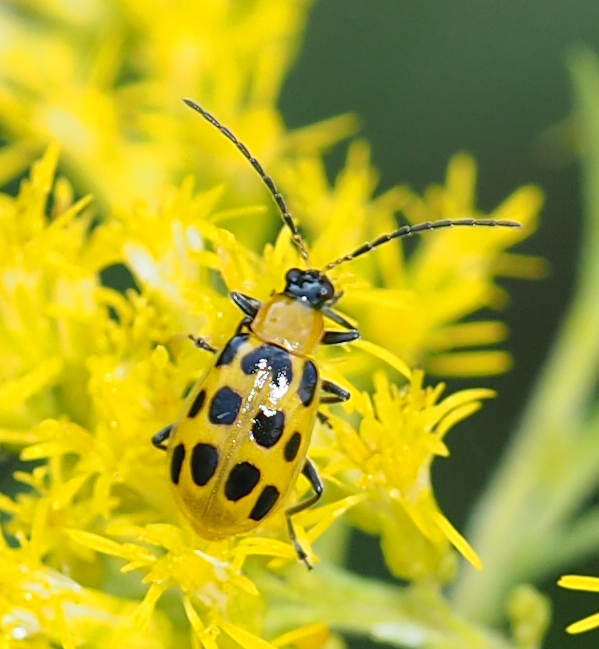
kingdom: Animalia
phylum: Arthropoda
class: Insecta
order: Coleoptera
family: Chrysomelidae
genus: Diabrotica
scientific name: Diabrotica undecimpunctata
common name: Spotted cucumber beetle
